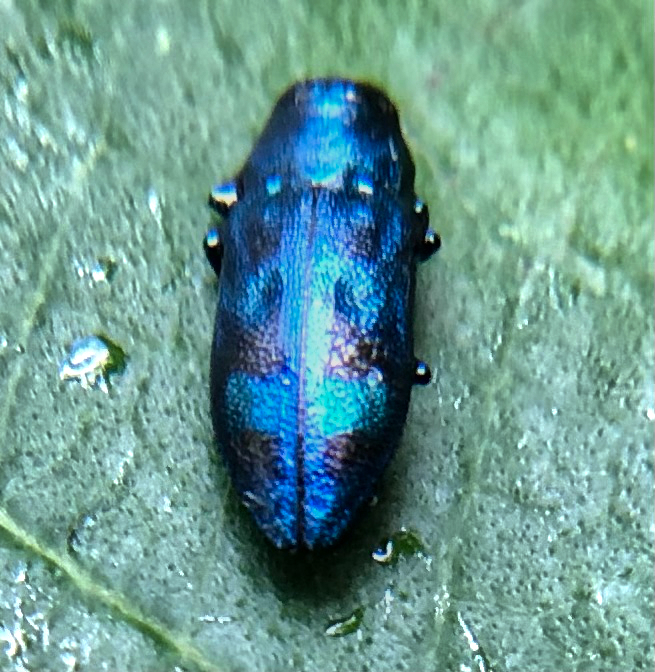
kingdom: Animalia
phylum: Arthropoda
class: Insecta
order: Coleoptera
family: Buprestidae
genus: Chrysobothris
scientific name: Chrysobothris scitula
